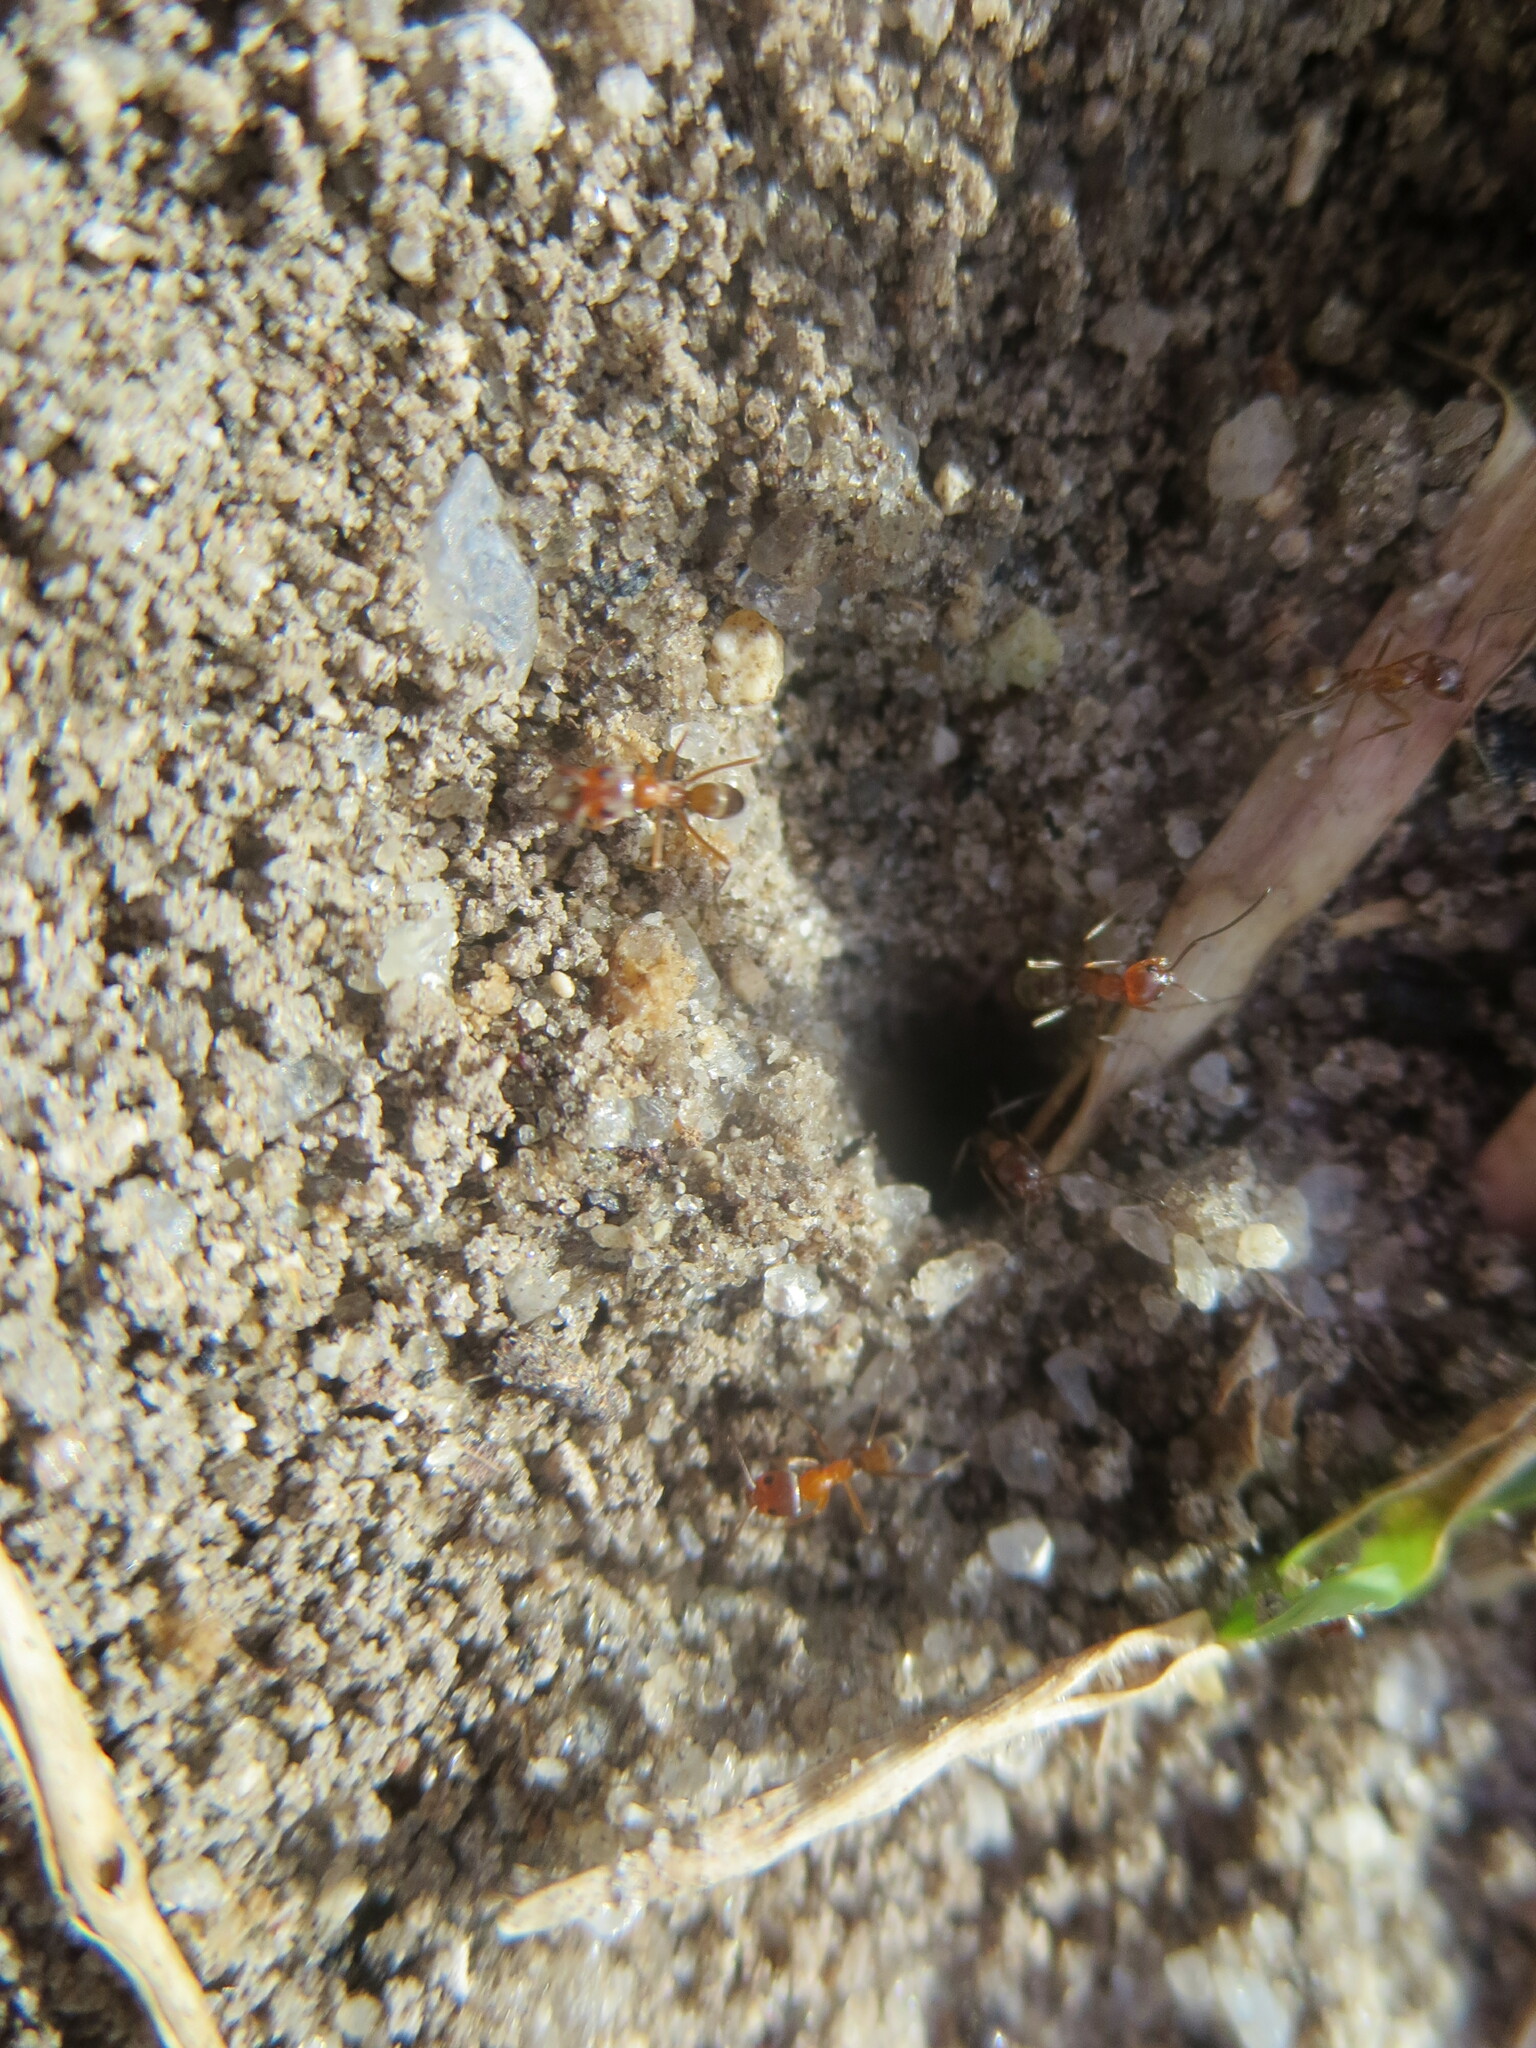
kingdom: Animalia
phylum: Arthropoda
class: Insecta
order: Hymenoptera
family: Formicidae
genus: Dorymyrmex
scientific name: Dorymyrmex bureni
